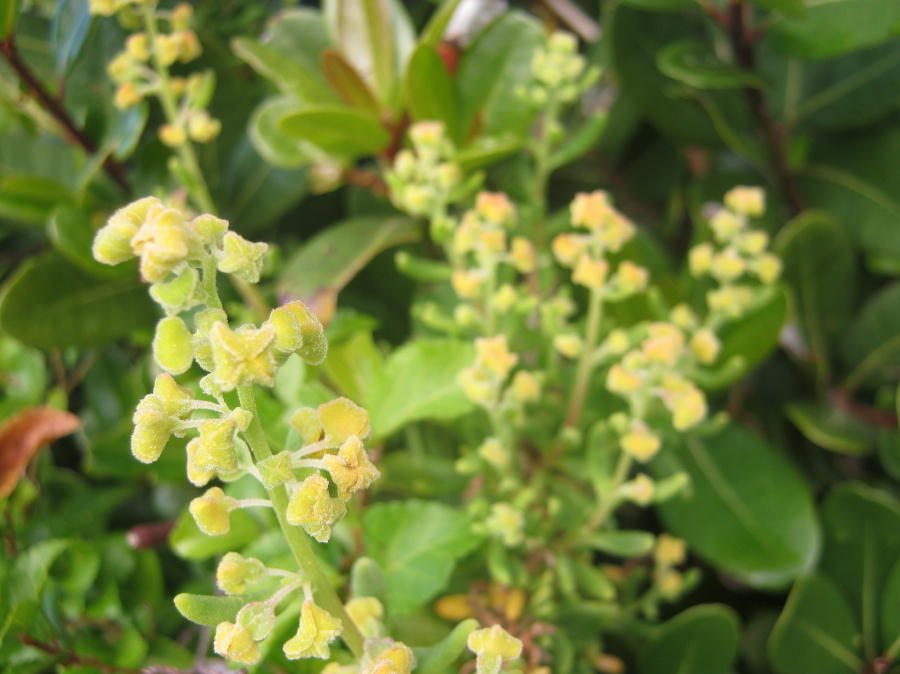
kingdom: Plantae
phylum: Tracheophyta
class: Magnoliopsida
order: Caryophyllales
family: Aizoaceae
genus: Tetragonia
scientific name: Tetragonia fruticosa
